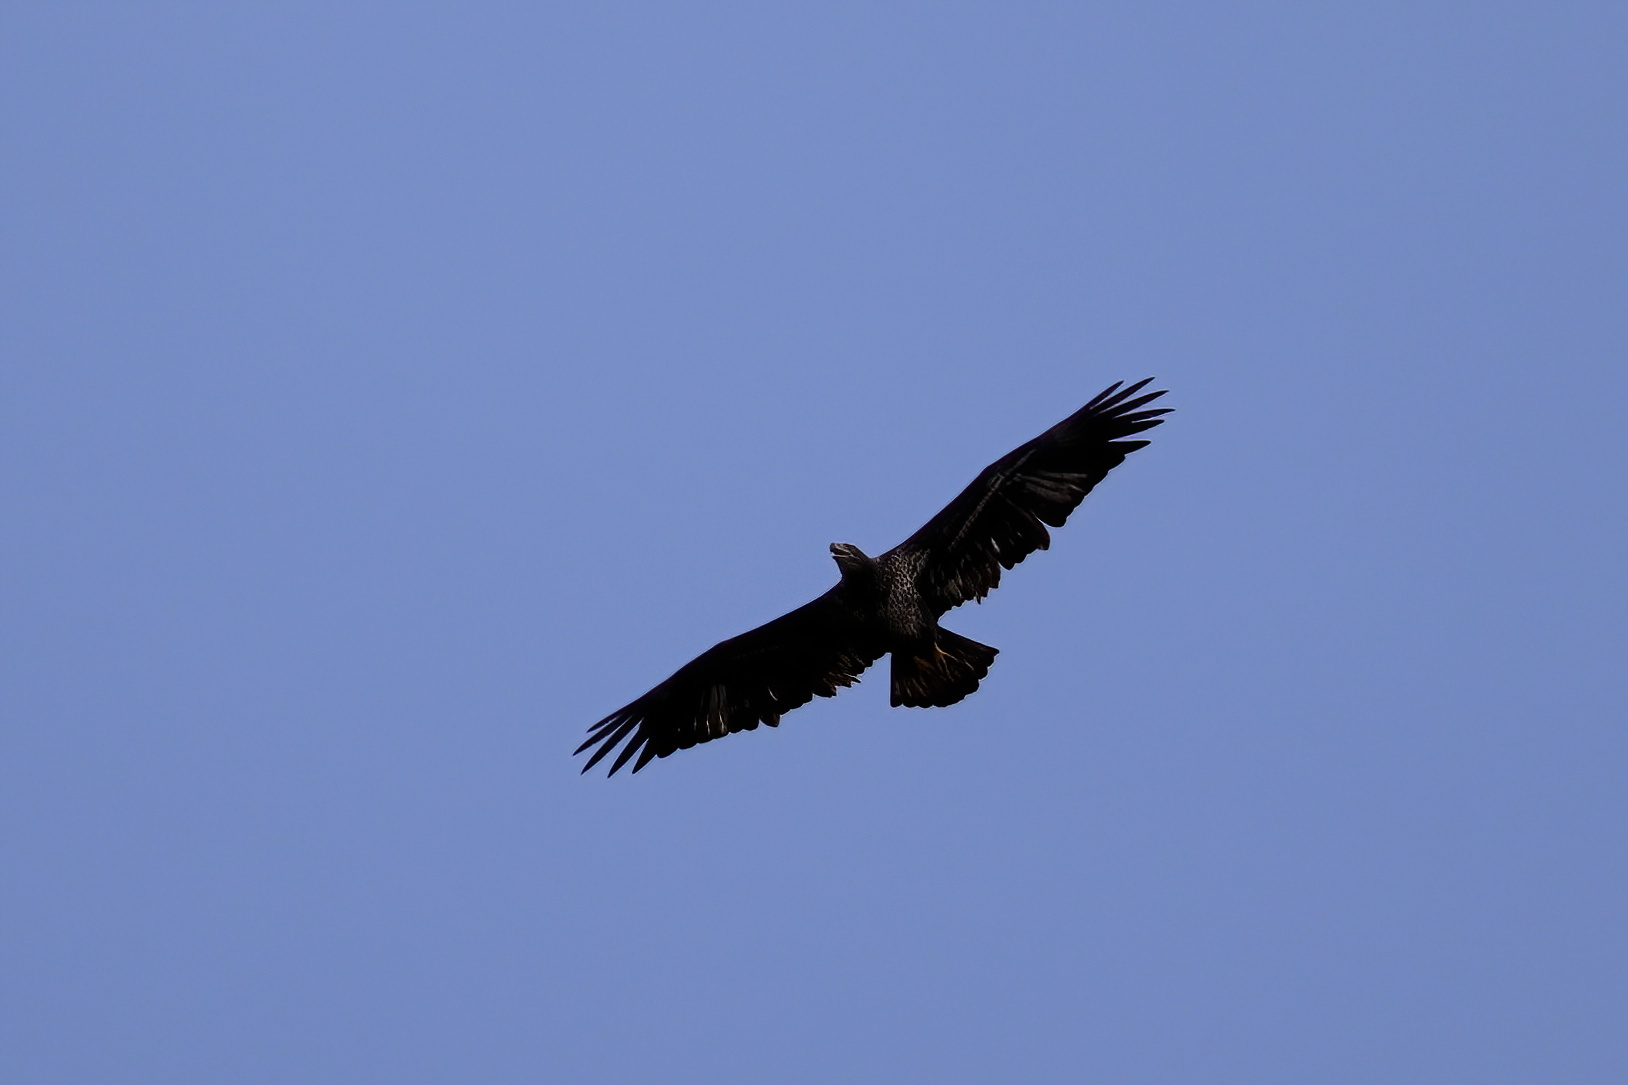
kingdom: Animalia
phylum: Chordata
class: Aves
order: Accipitriformes
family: Accipitridae
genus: Haliaeetus
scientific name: Haliaeetus leucocephalus
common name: Bald eagle
